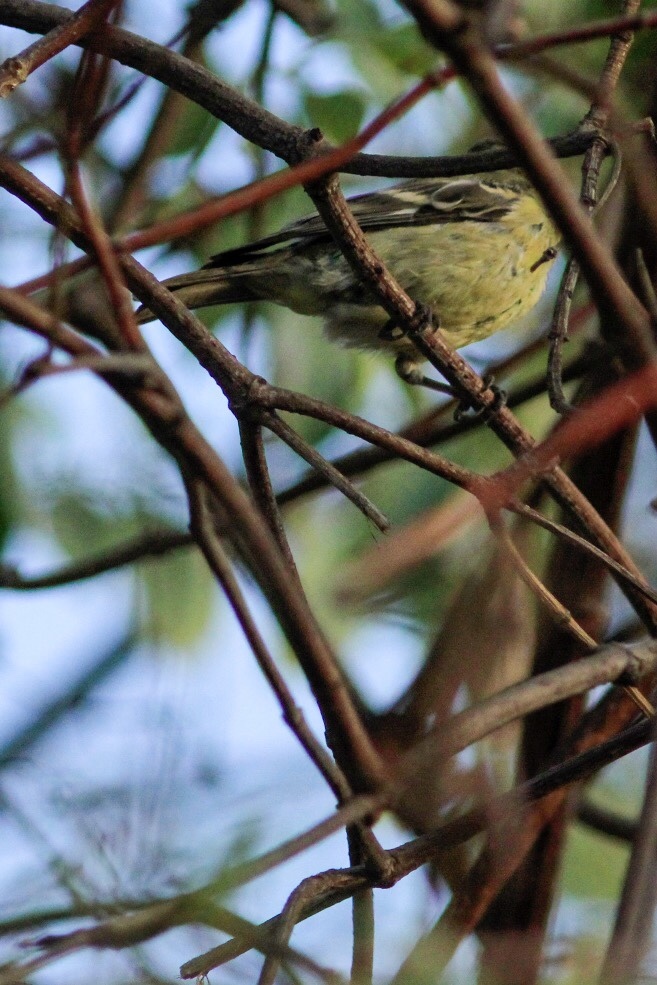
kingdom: Animalia
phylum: Chordata
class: Aves
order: Passeriformes
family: Fringillidae
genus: Spinus
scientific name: Spinus psaltria
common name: Lesser goldfinch
